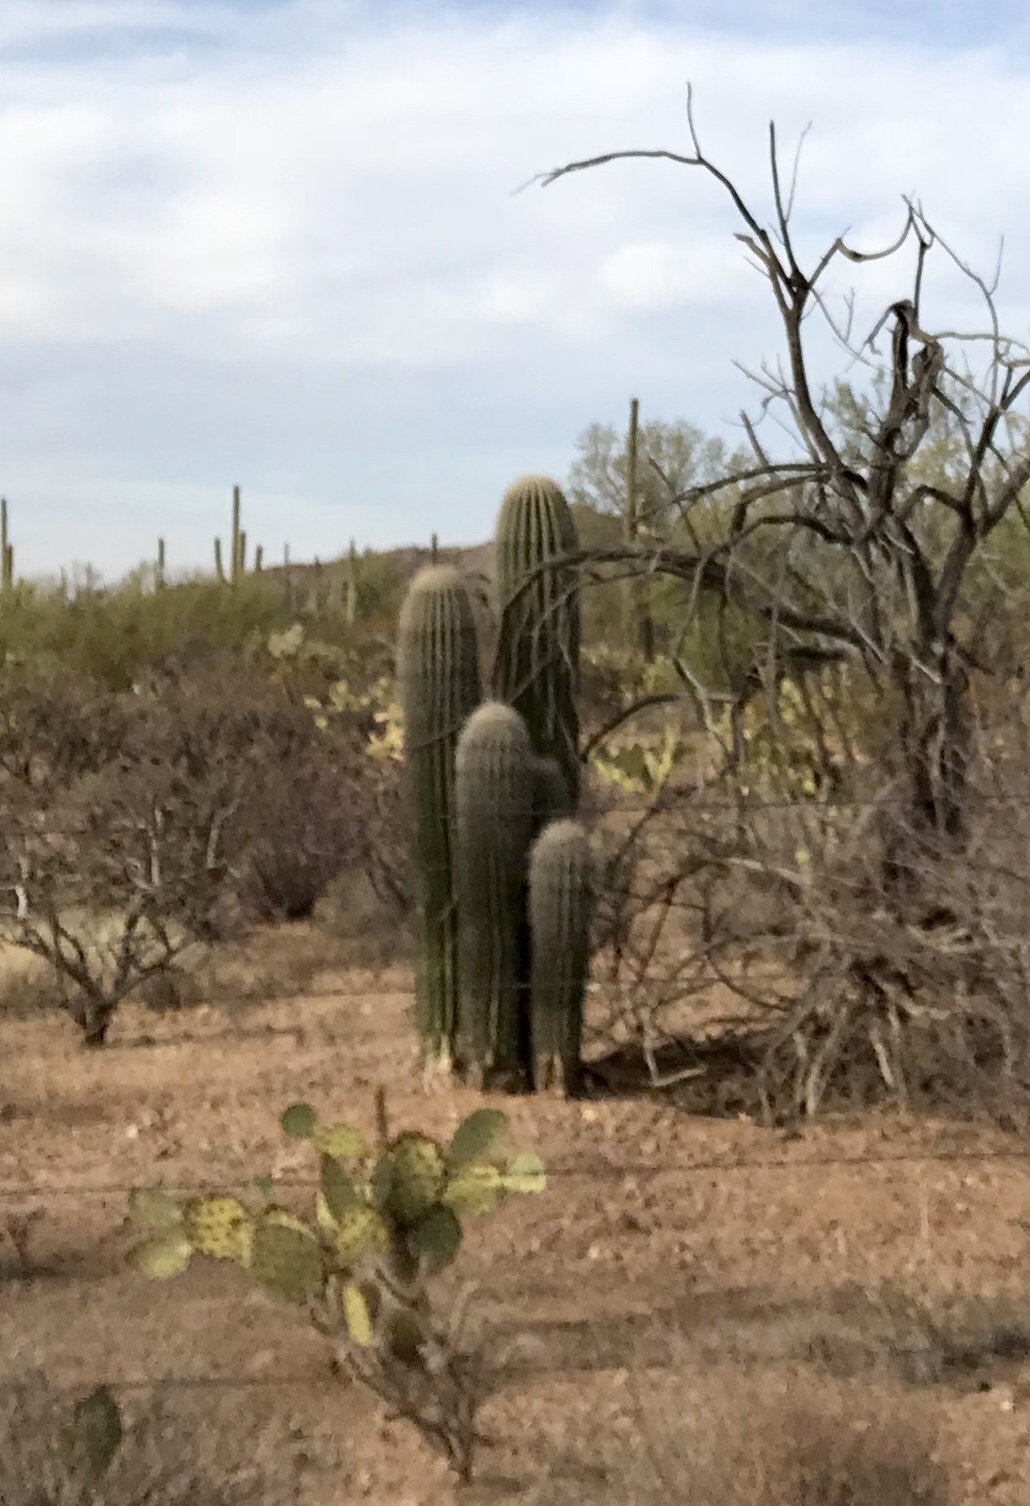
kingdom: Plantae
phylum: Tracheophyta
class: Magnoliopsida
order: Caryophyllales
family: Cactaceae
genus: Carnegiea
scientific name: Carnegiea gigantea
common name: Saguaro
